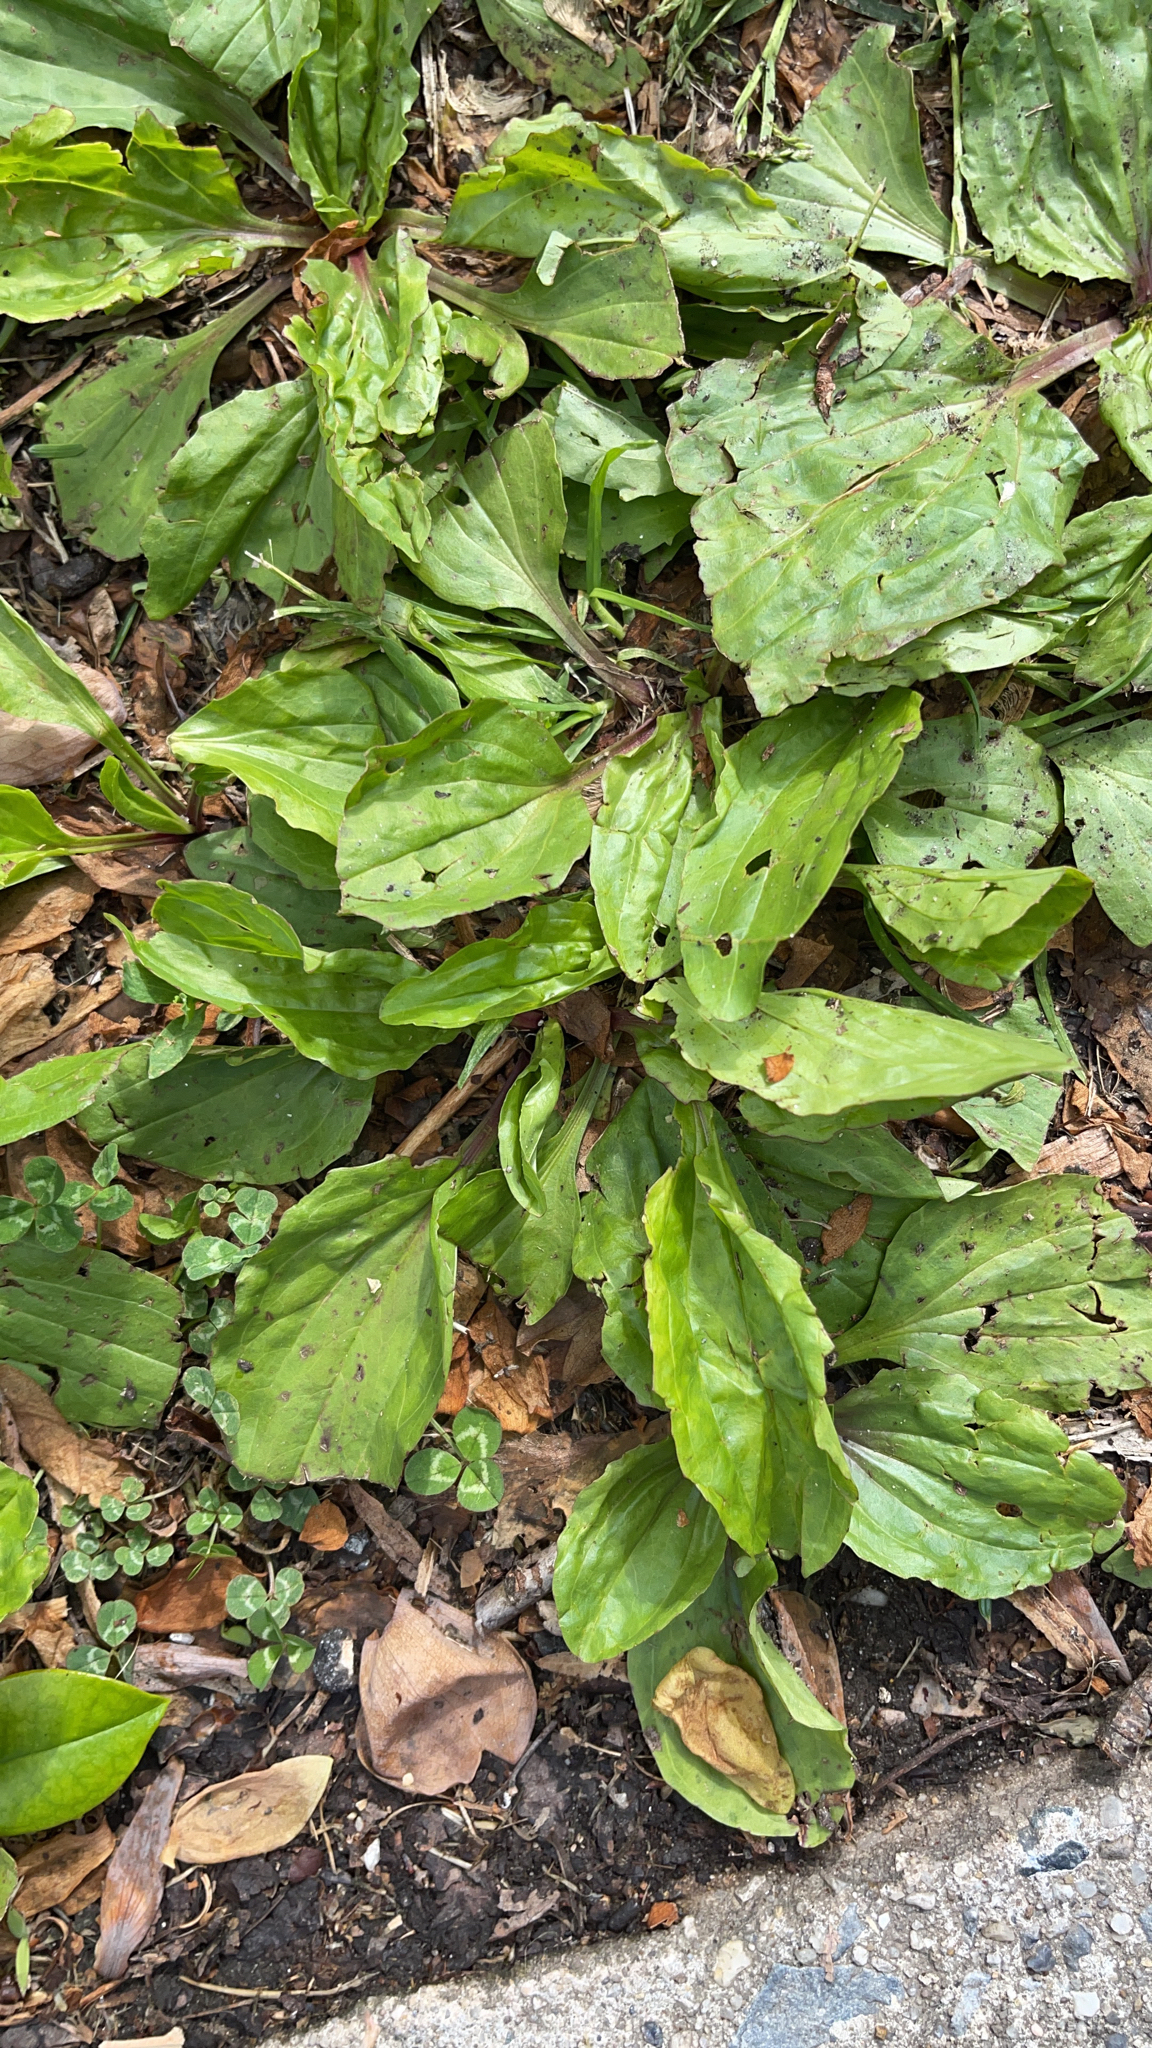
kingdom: Plantae
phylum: Tracheophyta
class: Magnoliopsida
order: Lamiales
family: Plantaginaceae
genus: Plantago
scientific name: Plantago rugelii
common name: American plantain
